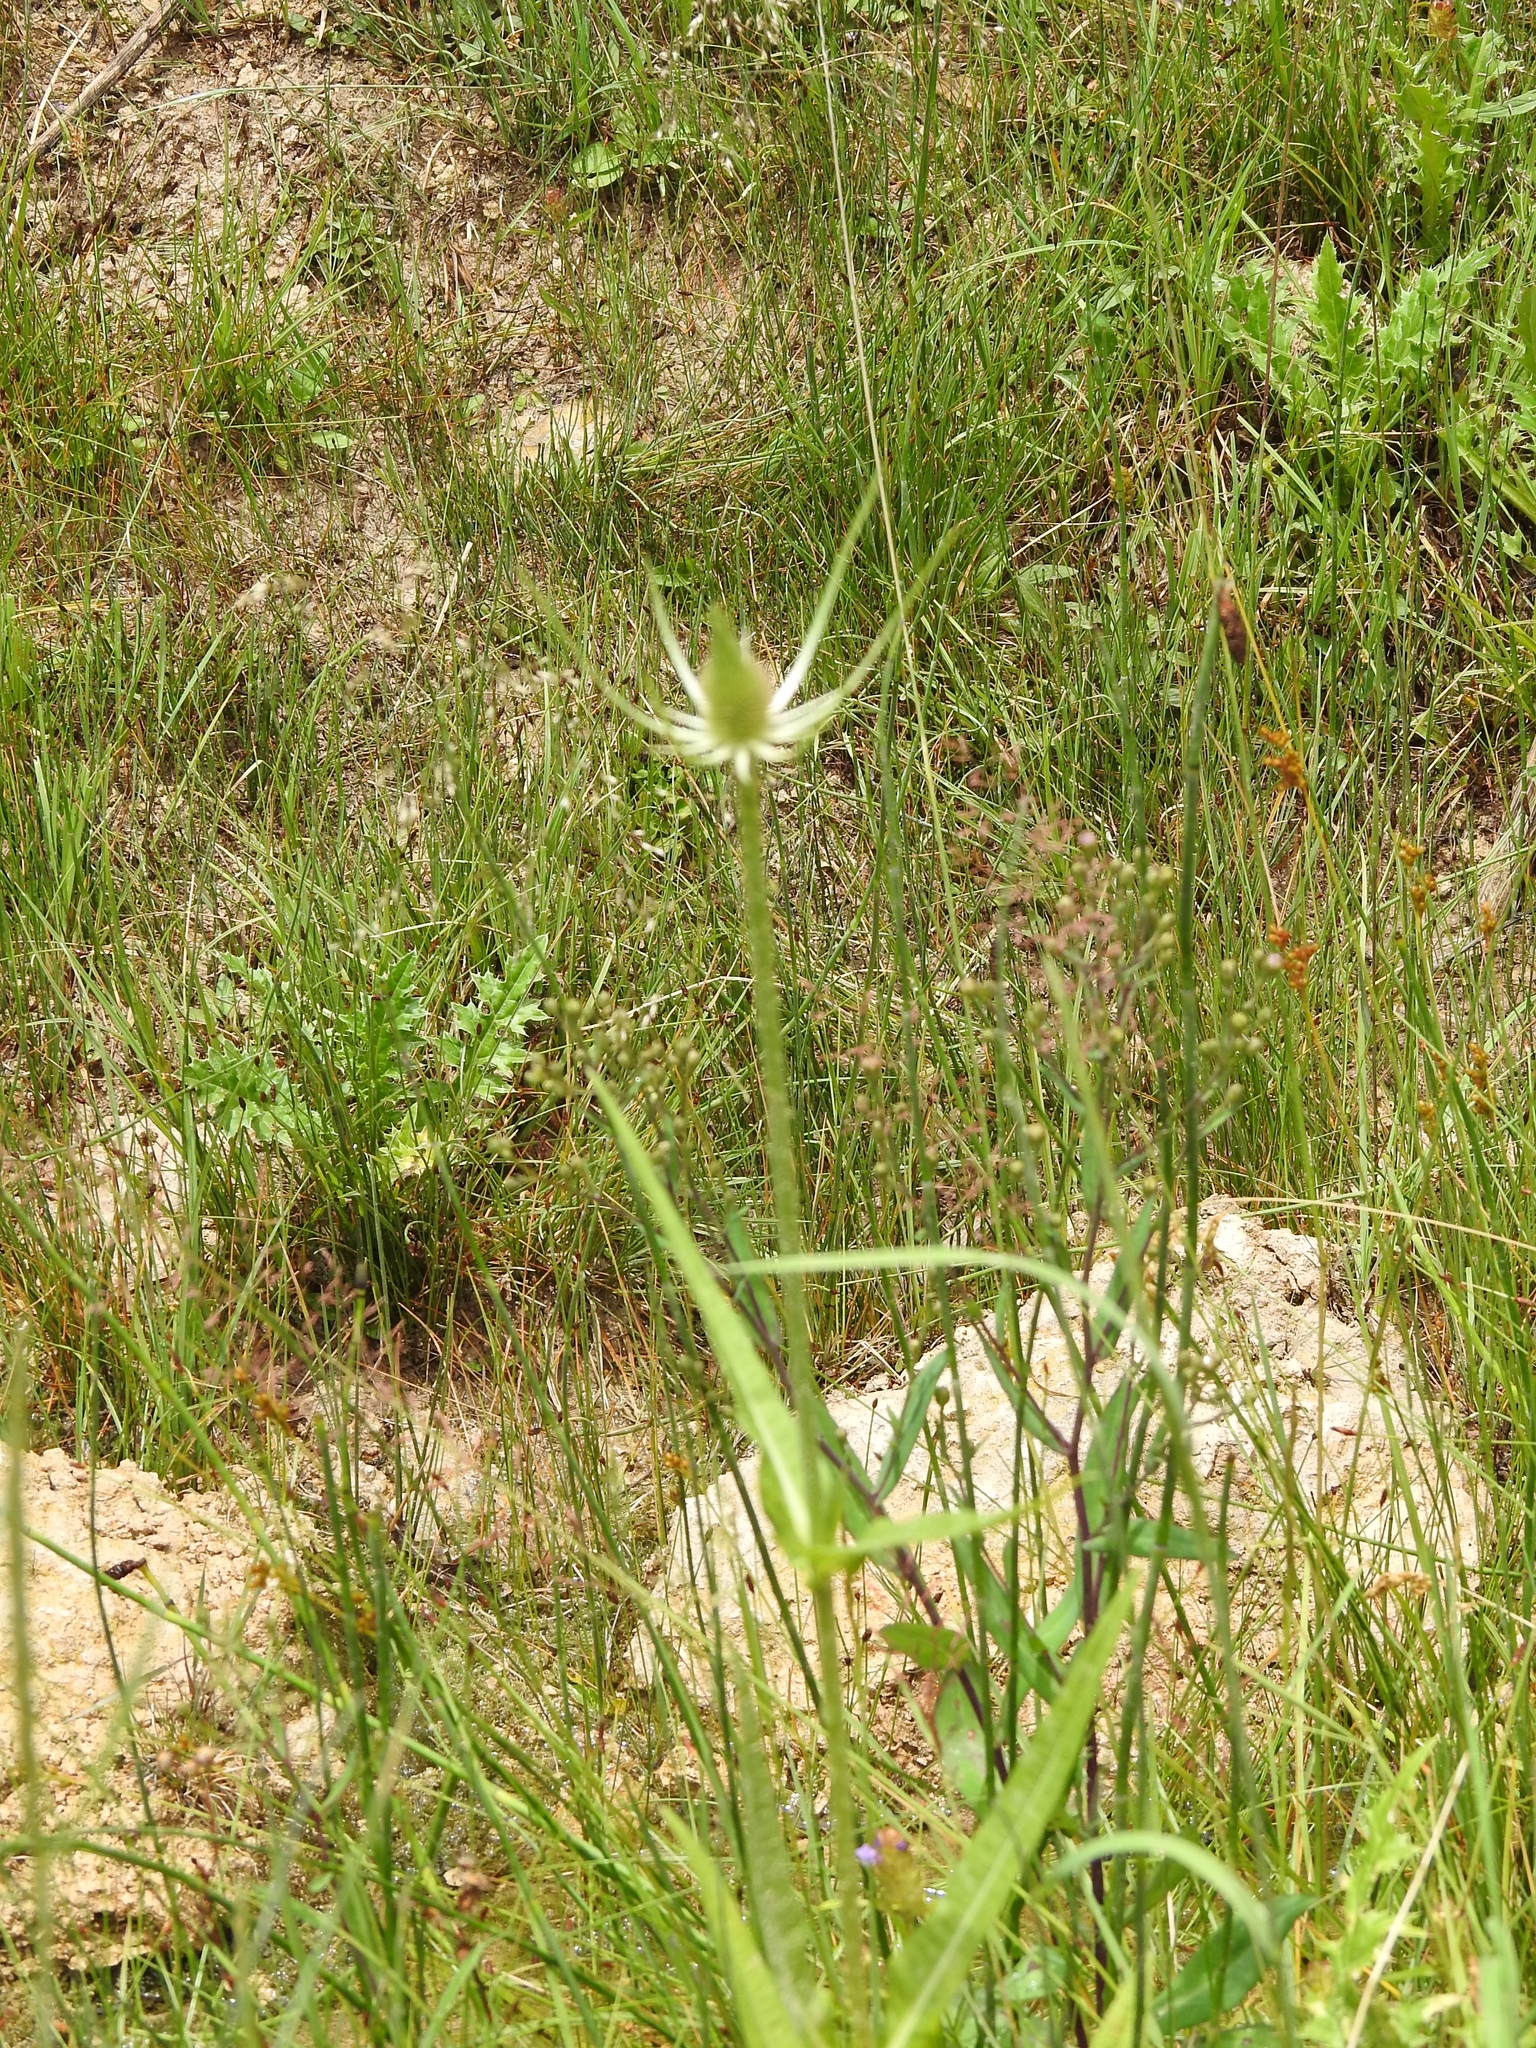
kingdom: Plantae
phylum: Tracheophyta
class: Magnoliopsida
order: Dipsacales
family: Caprifoliaceae
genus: Dipsacus
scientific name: Dipsacus fullonum
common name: Teasel
